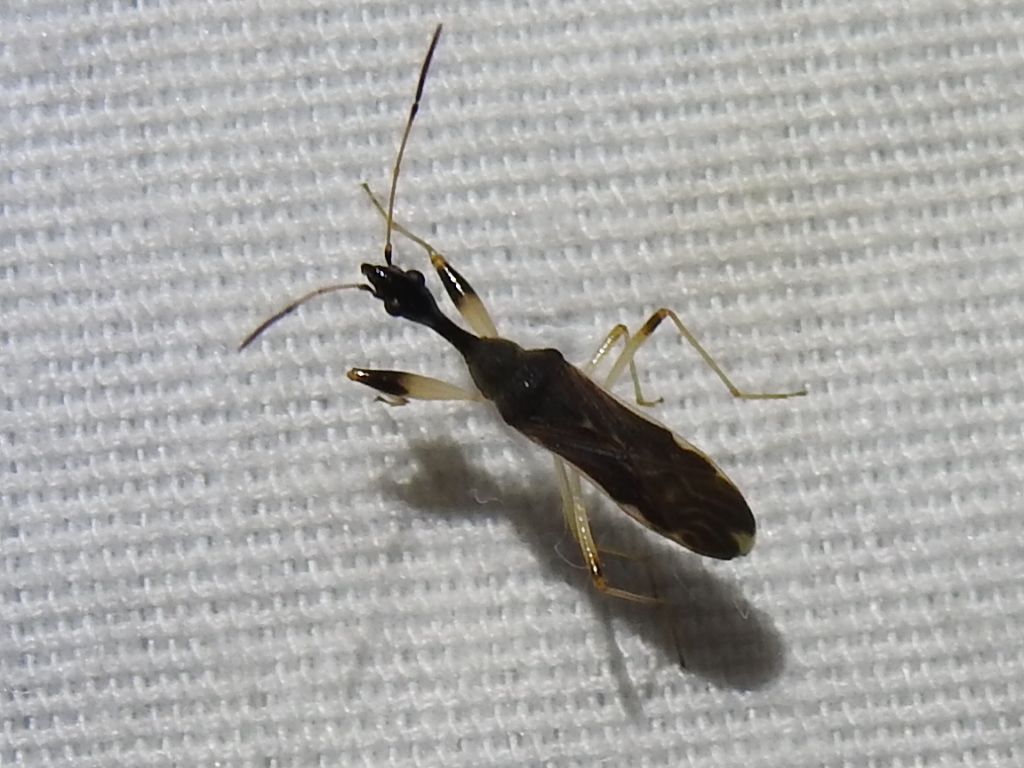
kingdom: Animalia
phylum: Arthropoda
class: Insecta
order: Hemiptera
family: Rhyparochromidae
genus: Myodocha
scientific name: Myodocha serripes
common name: Long-necked seed bug
